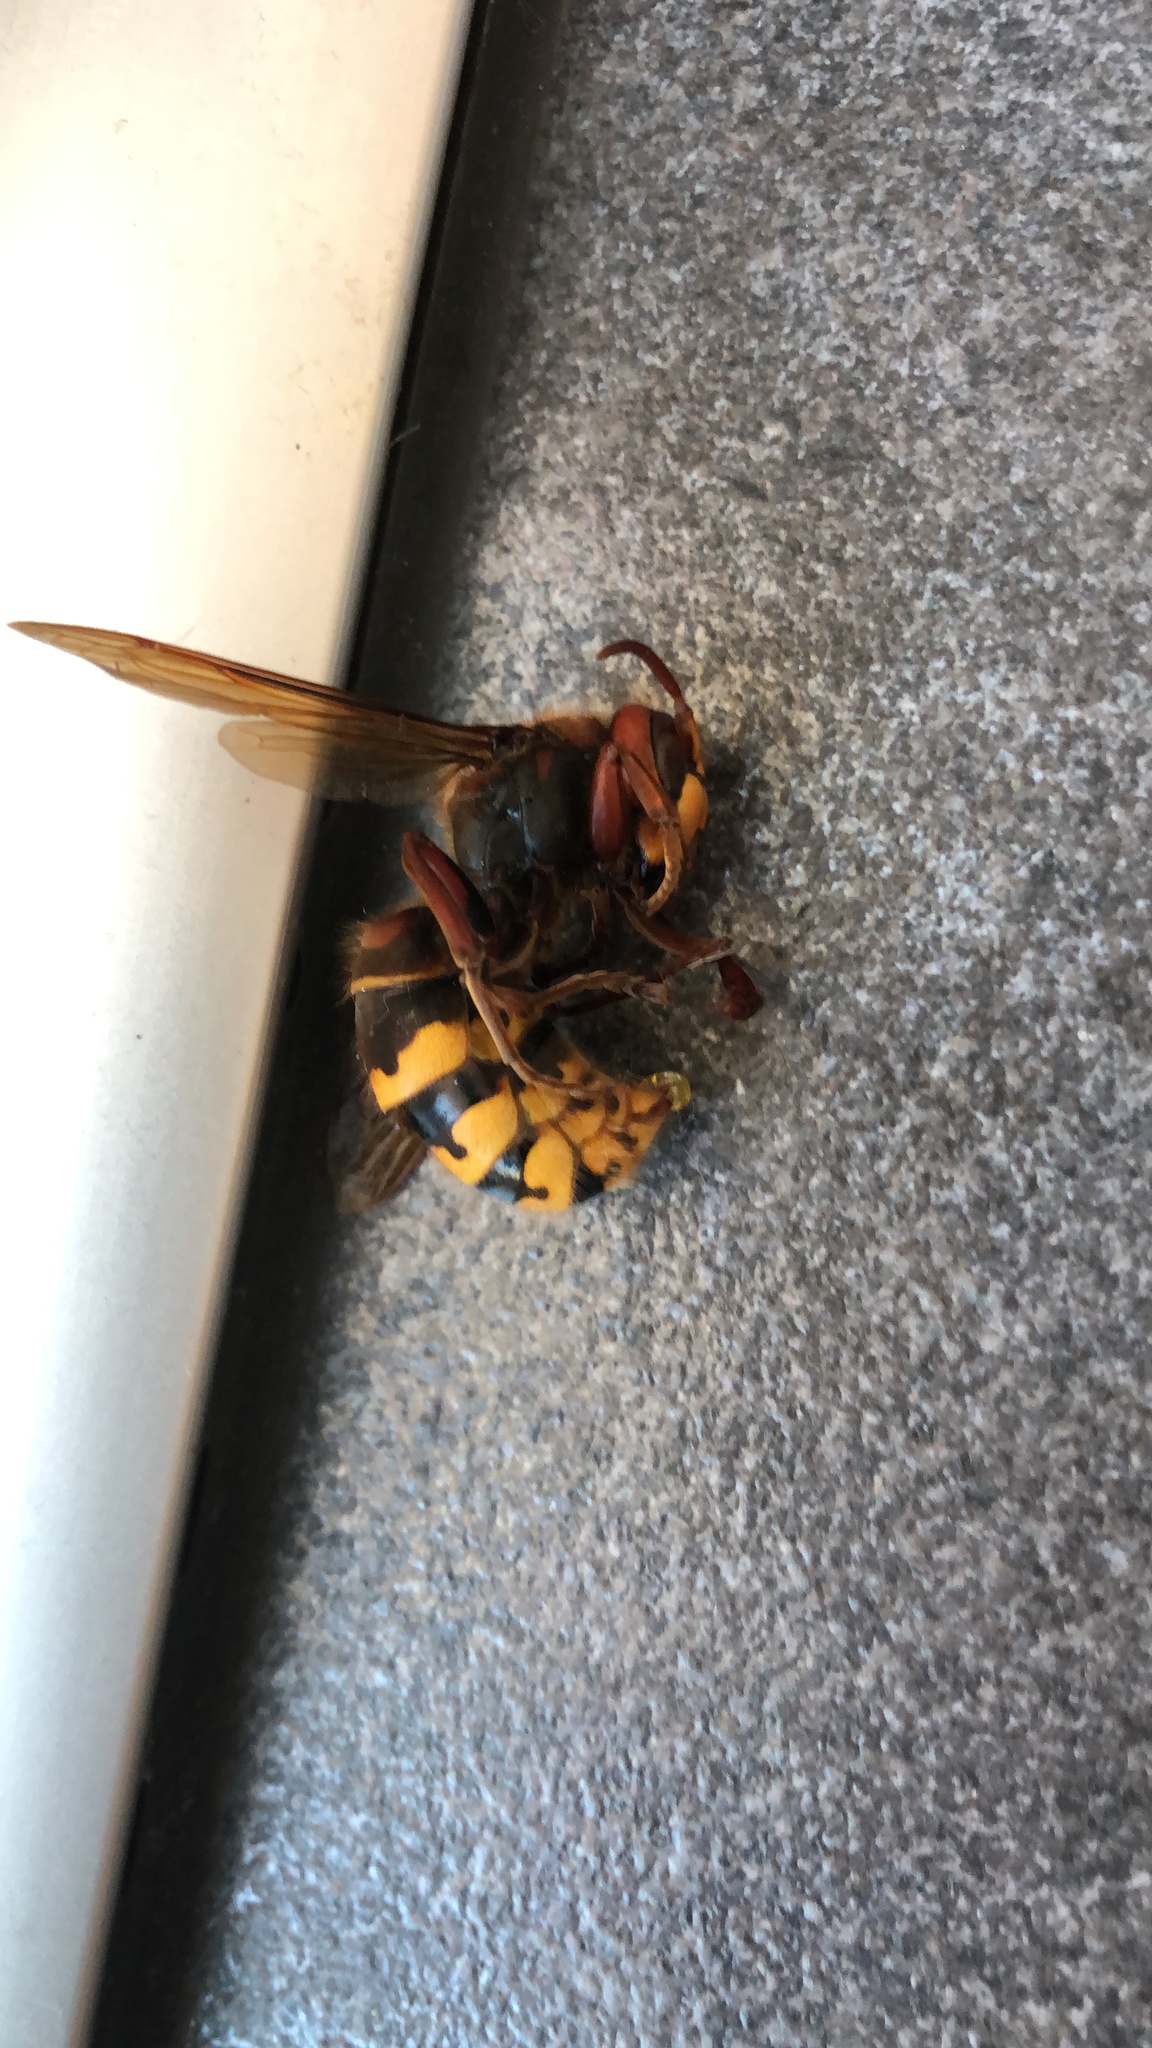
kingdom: Animalia
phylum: Arthropoda
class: Insecta
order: Hymenoptera
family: Vespidae
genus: Vespa
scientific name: Vespa crabro
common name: Hornet
